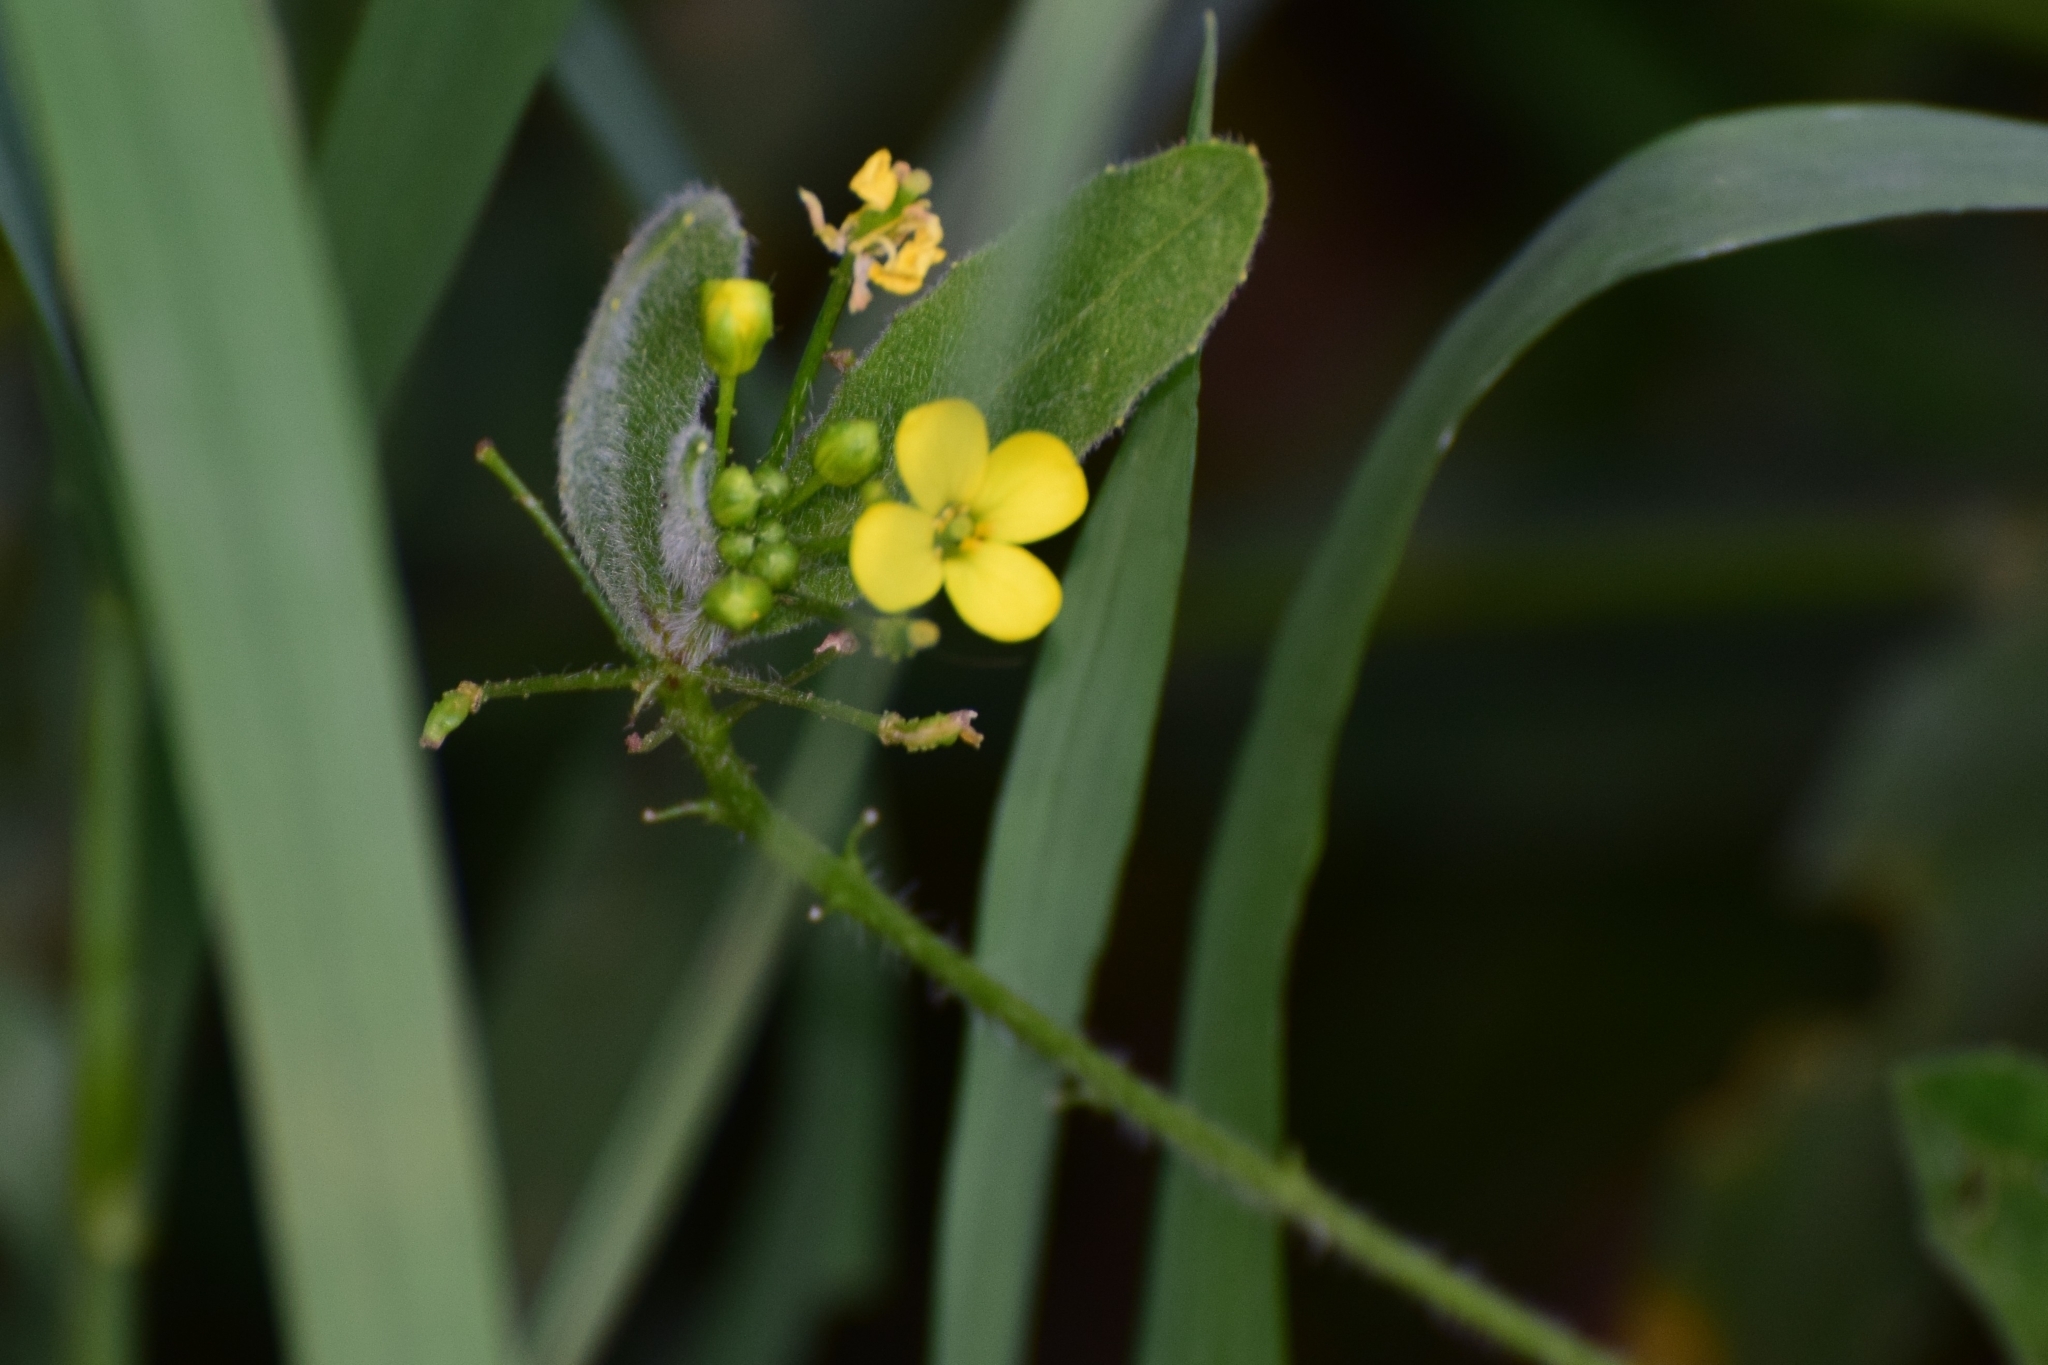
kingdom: Plantae
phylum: Tracheophyta
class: Magnoliopsida
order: Brassicales
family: Brassicaceae
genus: Bunias
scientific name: Bunias orientalis
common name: Warty-cabbage
